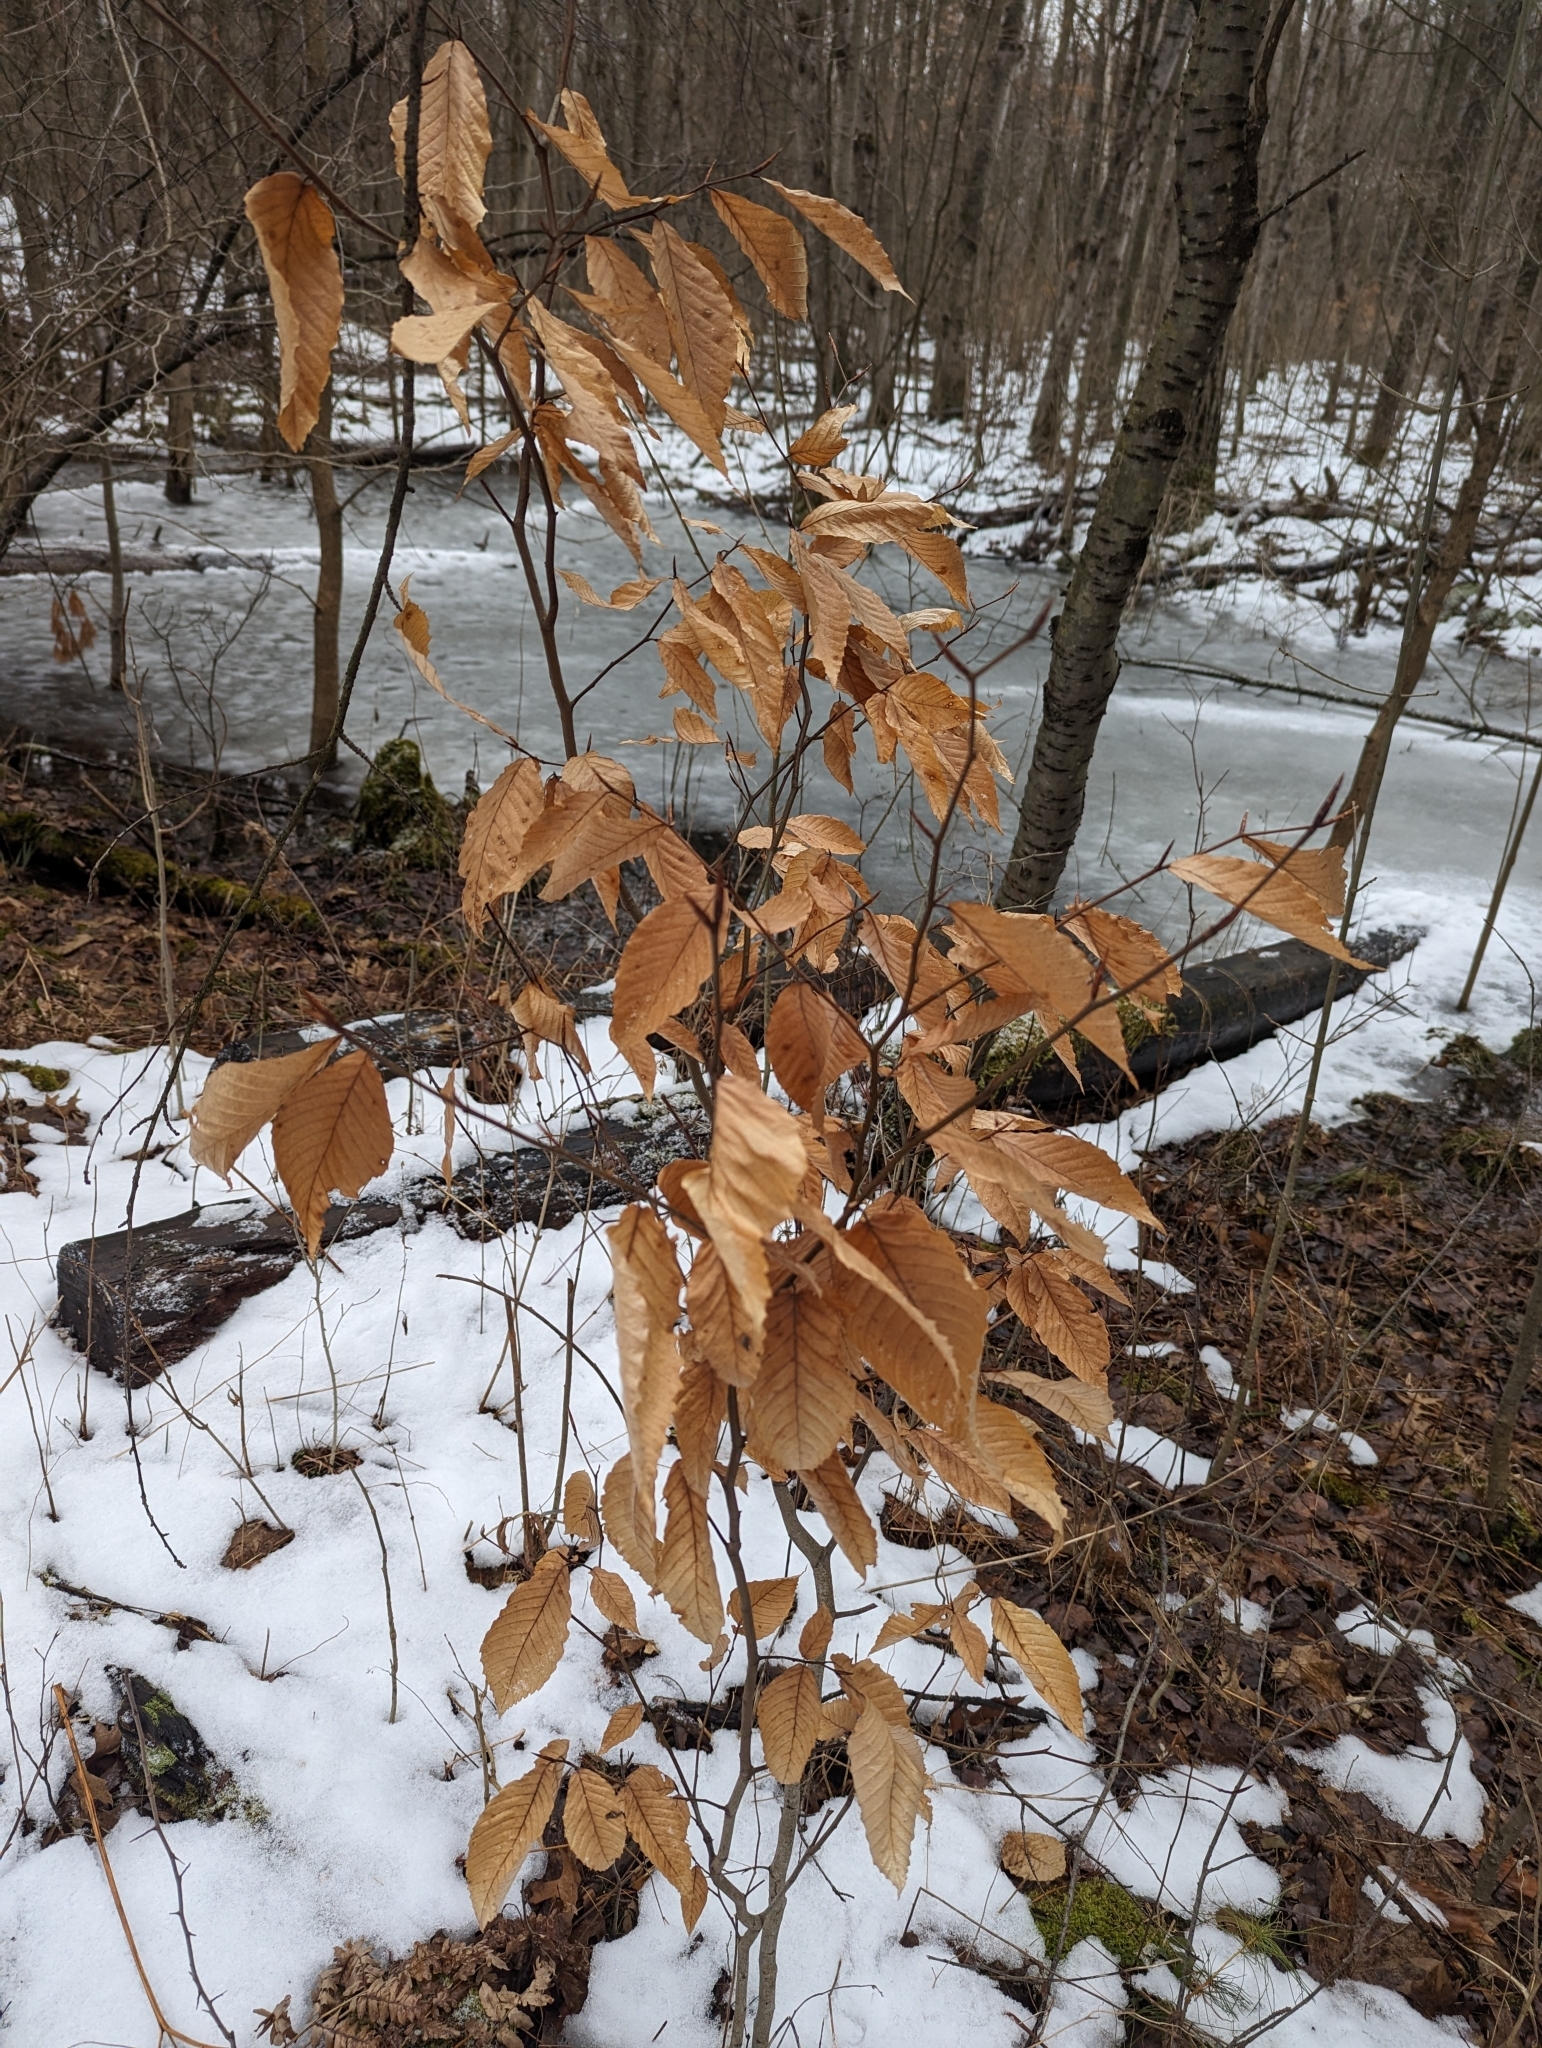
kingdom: Plantae
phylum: Tracheophyta
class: Magnoliopsida
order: Fagales
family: Fagaceae
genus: Fagus
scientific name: Fagus grandifolia
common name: American beech
